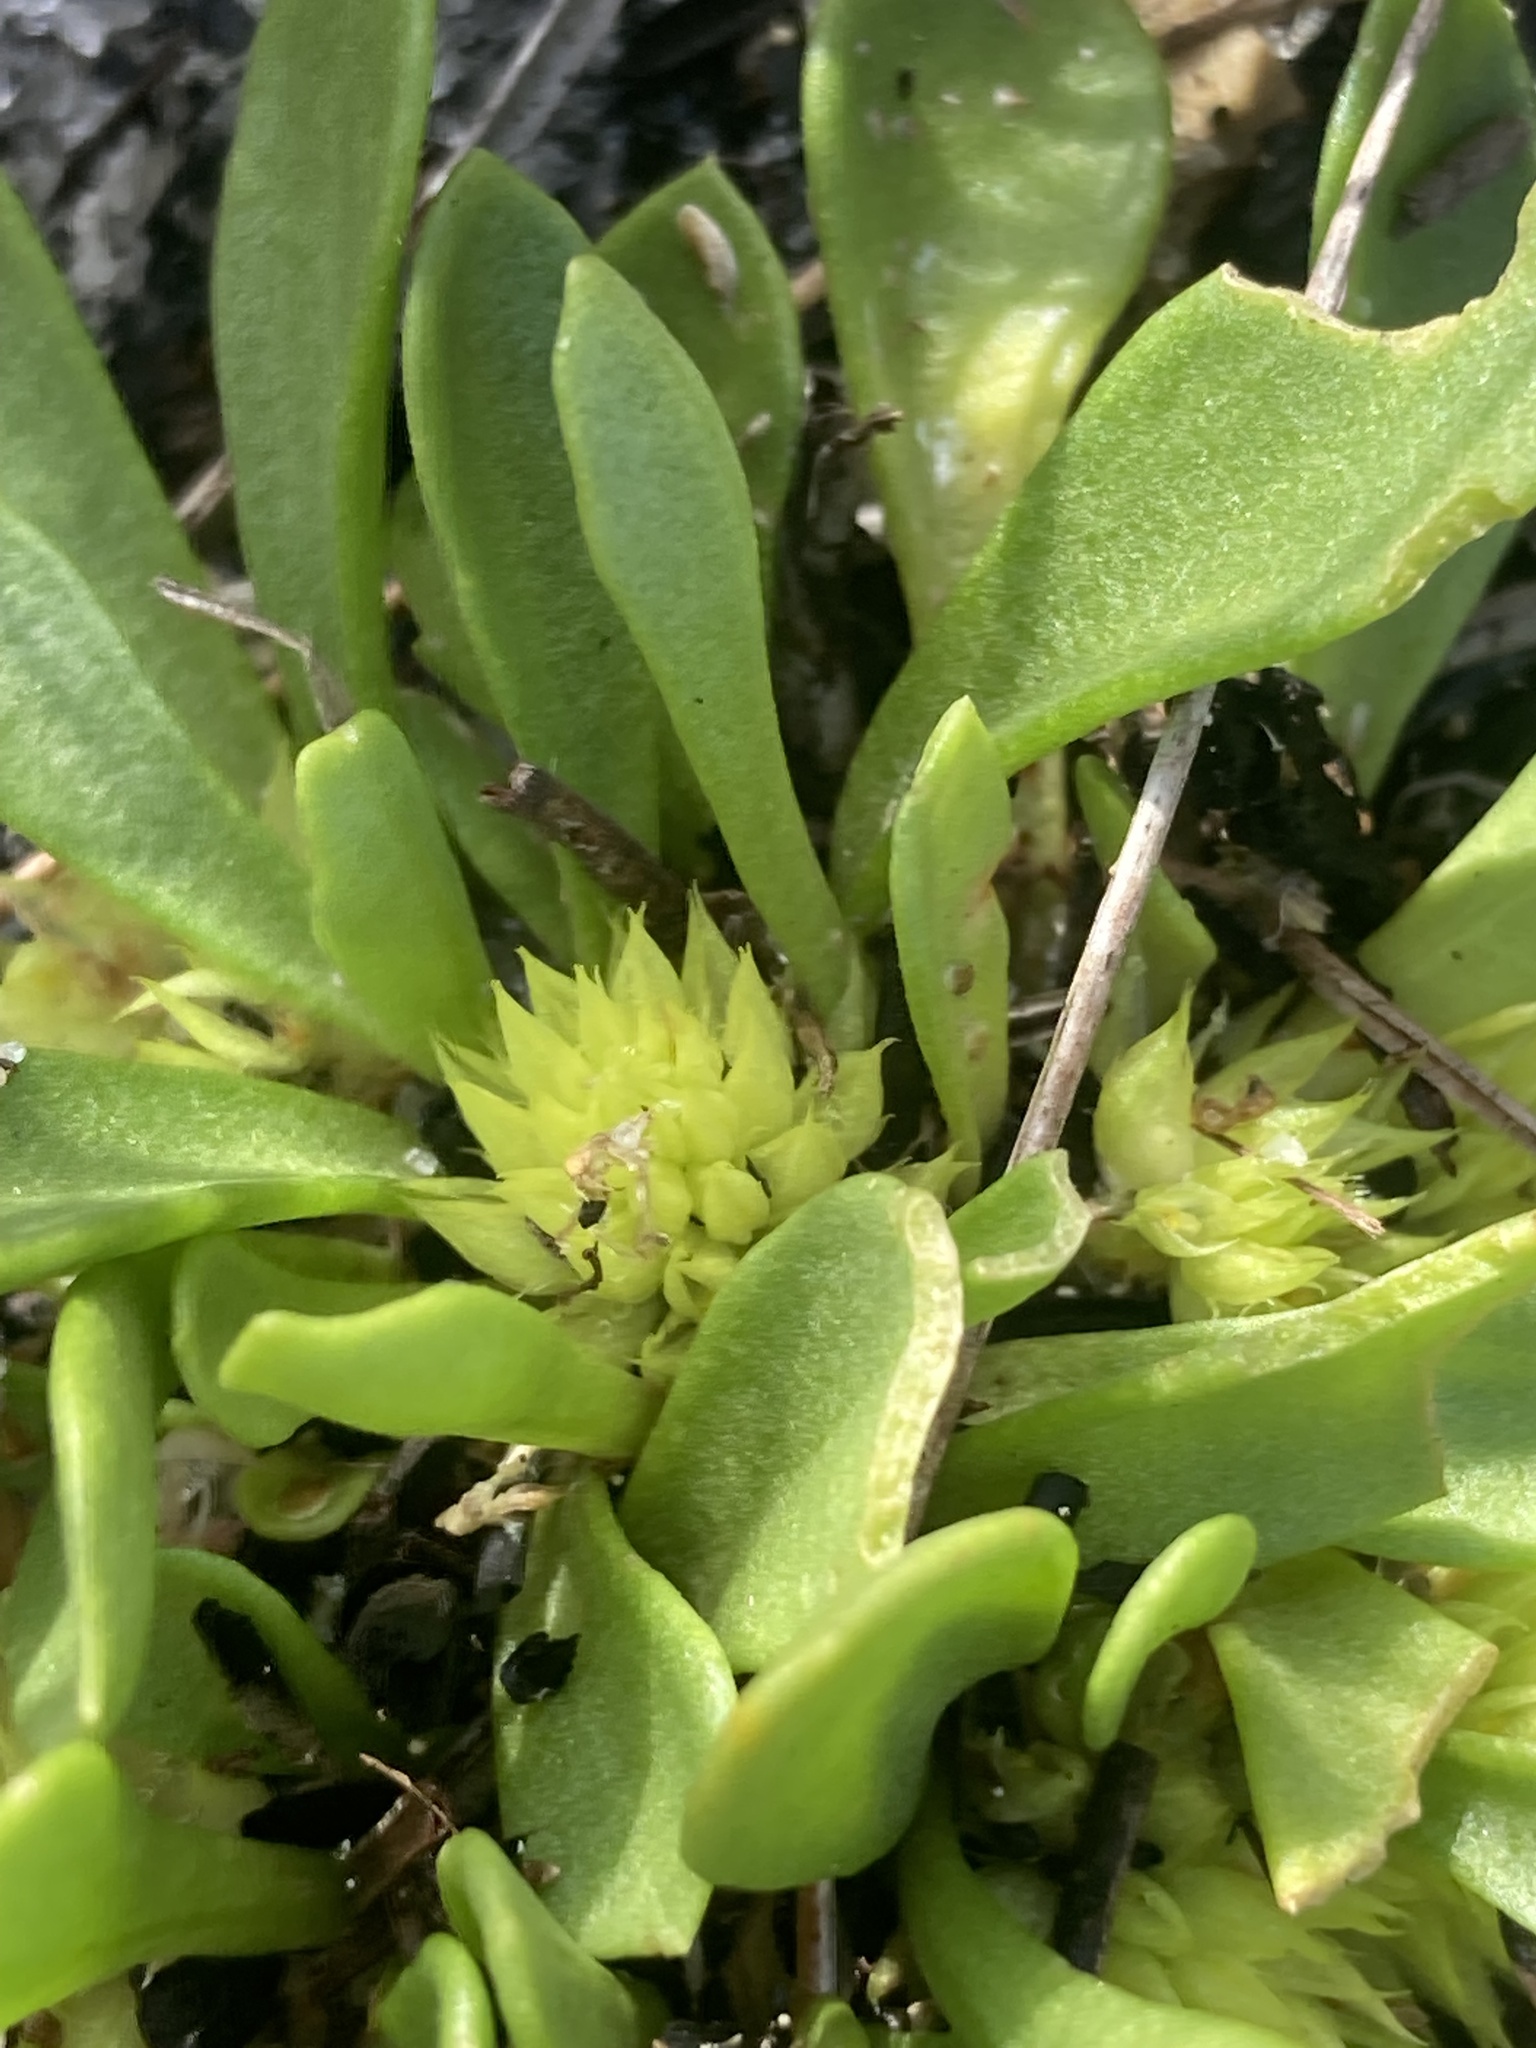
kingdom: Plantae
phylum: Tracheophyta
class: Magnoliopsida
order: Fabales
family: Polygalaceae
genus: Polygala
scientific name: Polygala nana
